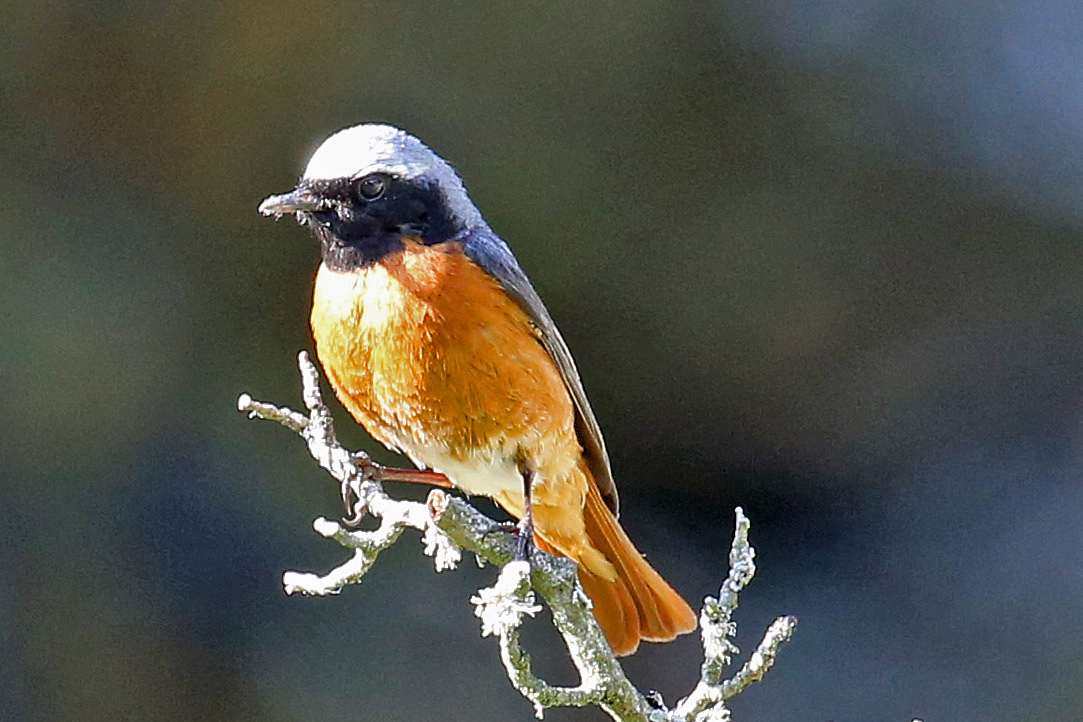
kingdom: Animalia
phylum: Chordata
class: Aves
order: Passeriformes
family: Muscicapidae
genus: Phoenicurus
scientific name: Phoenicurus phoenicurus
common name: Common redstart
